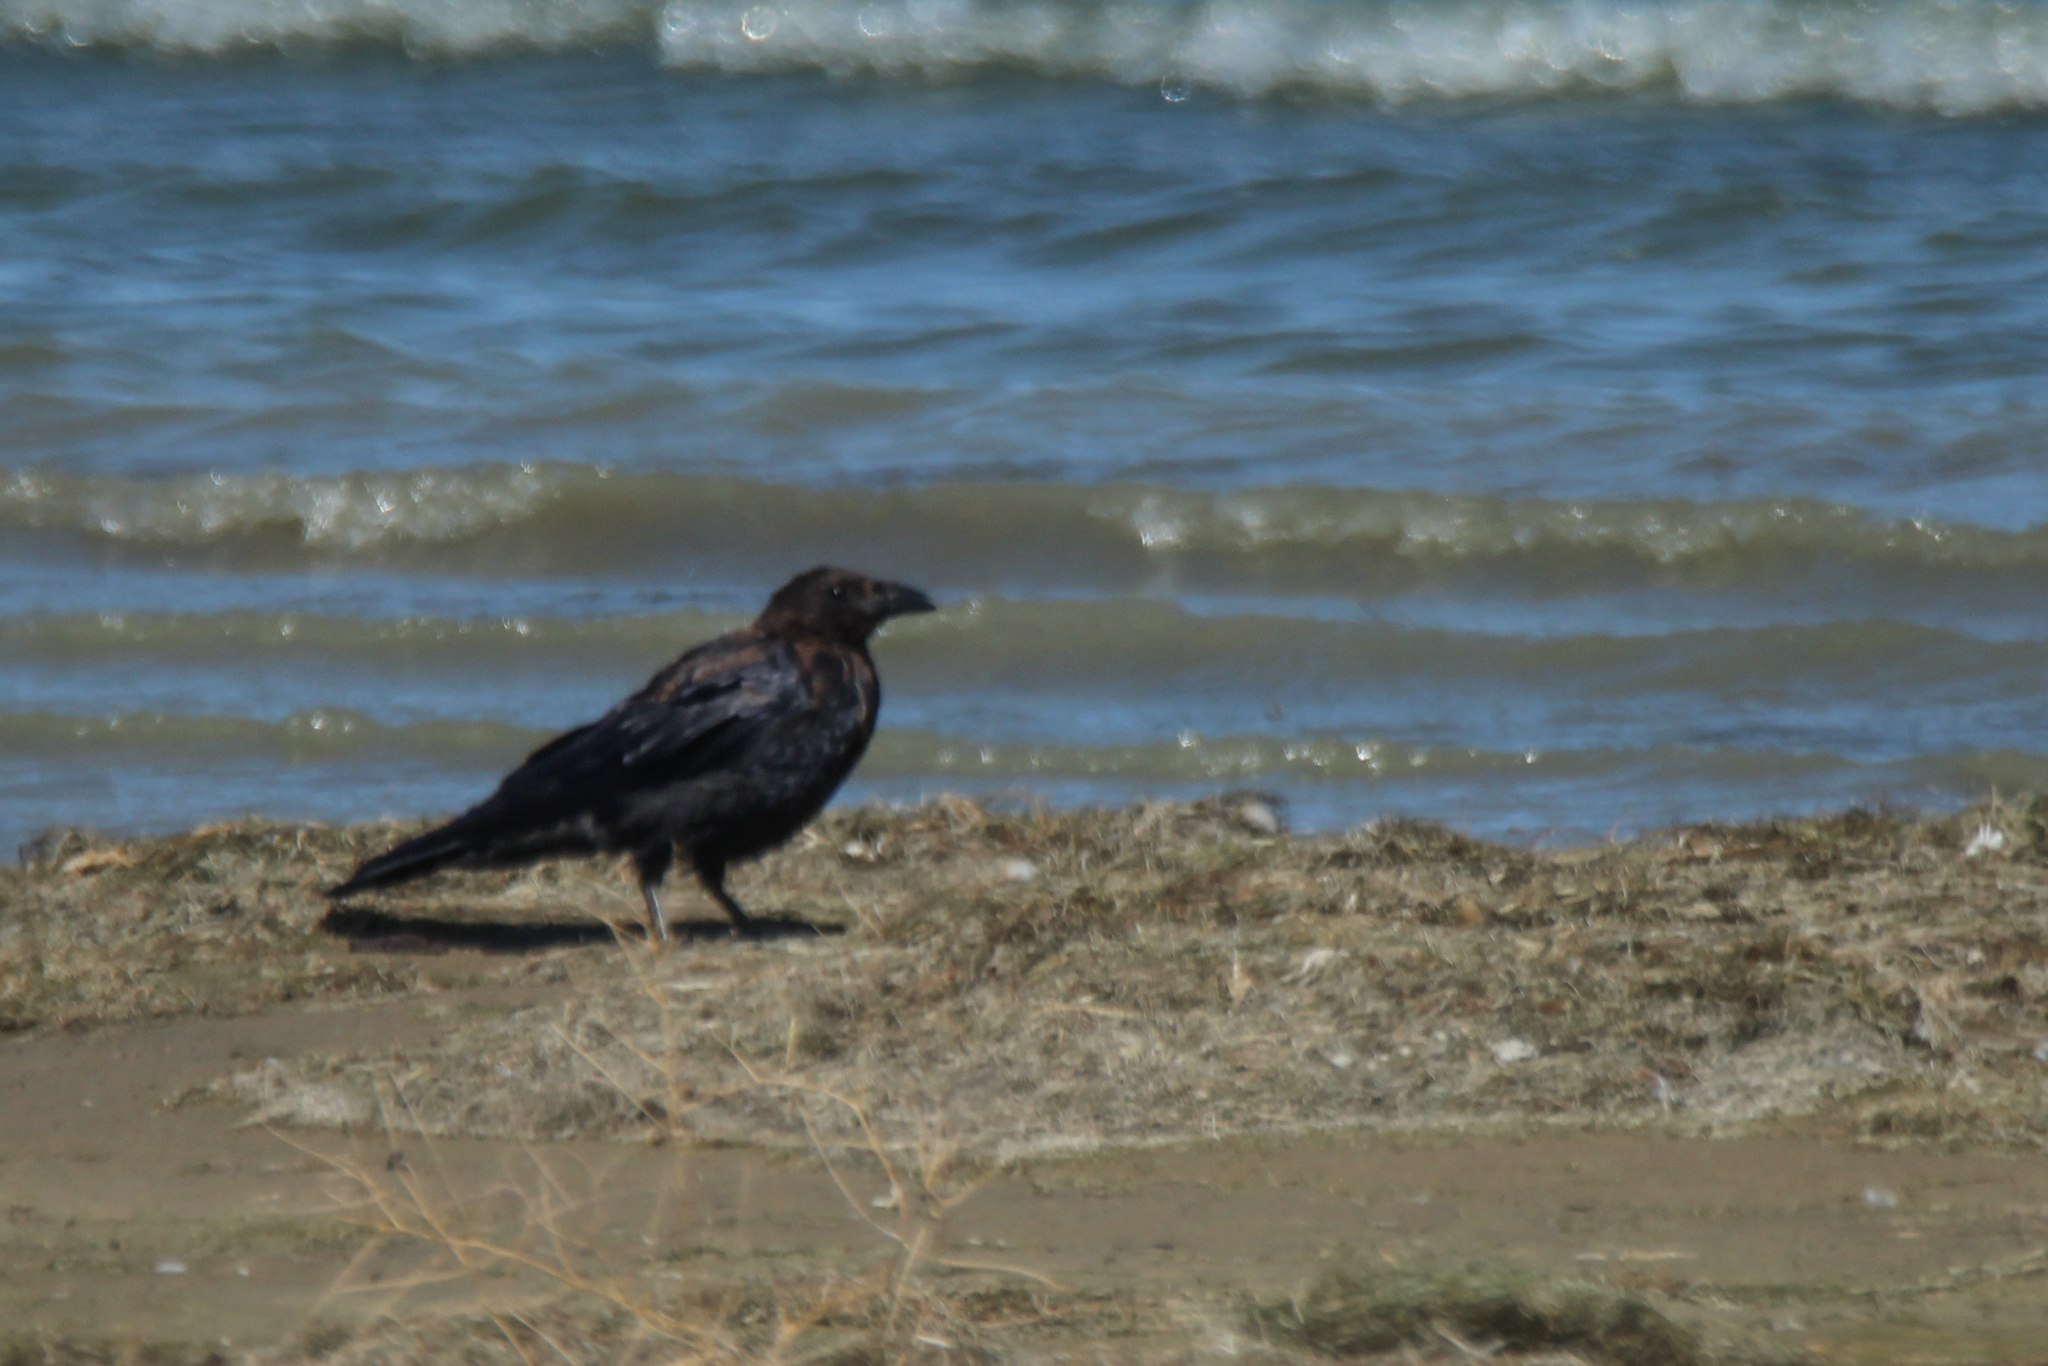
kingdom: Animalia
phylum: Chordata
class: Aves
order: Passeriformes
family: Corvidae
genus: Corvus
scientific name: Corvus corone
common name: Carrion crow
